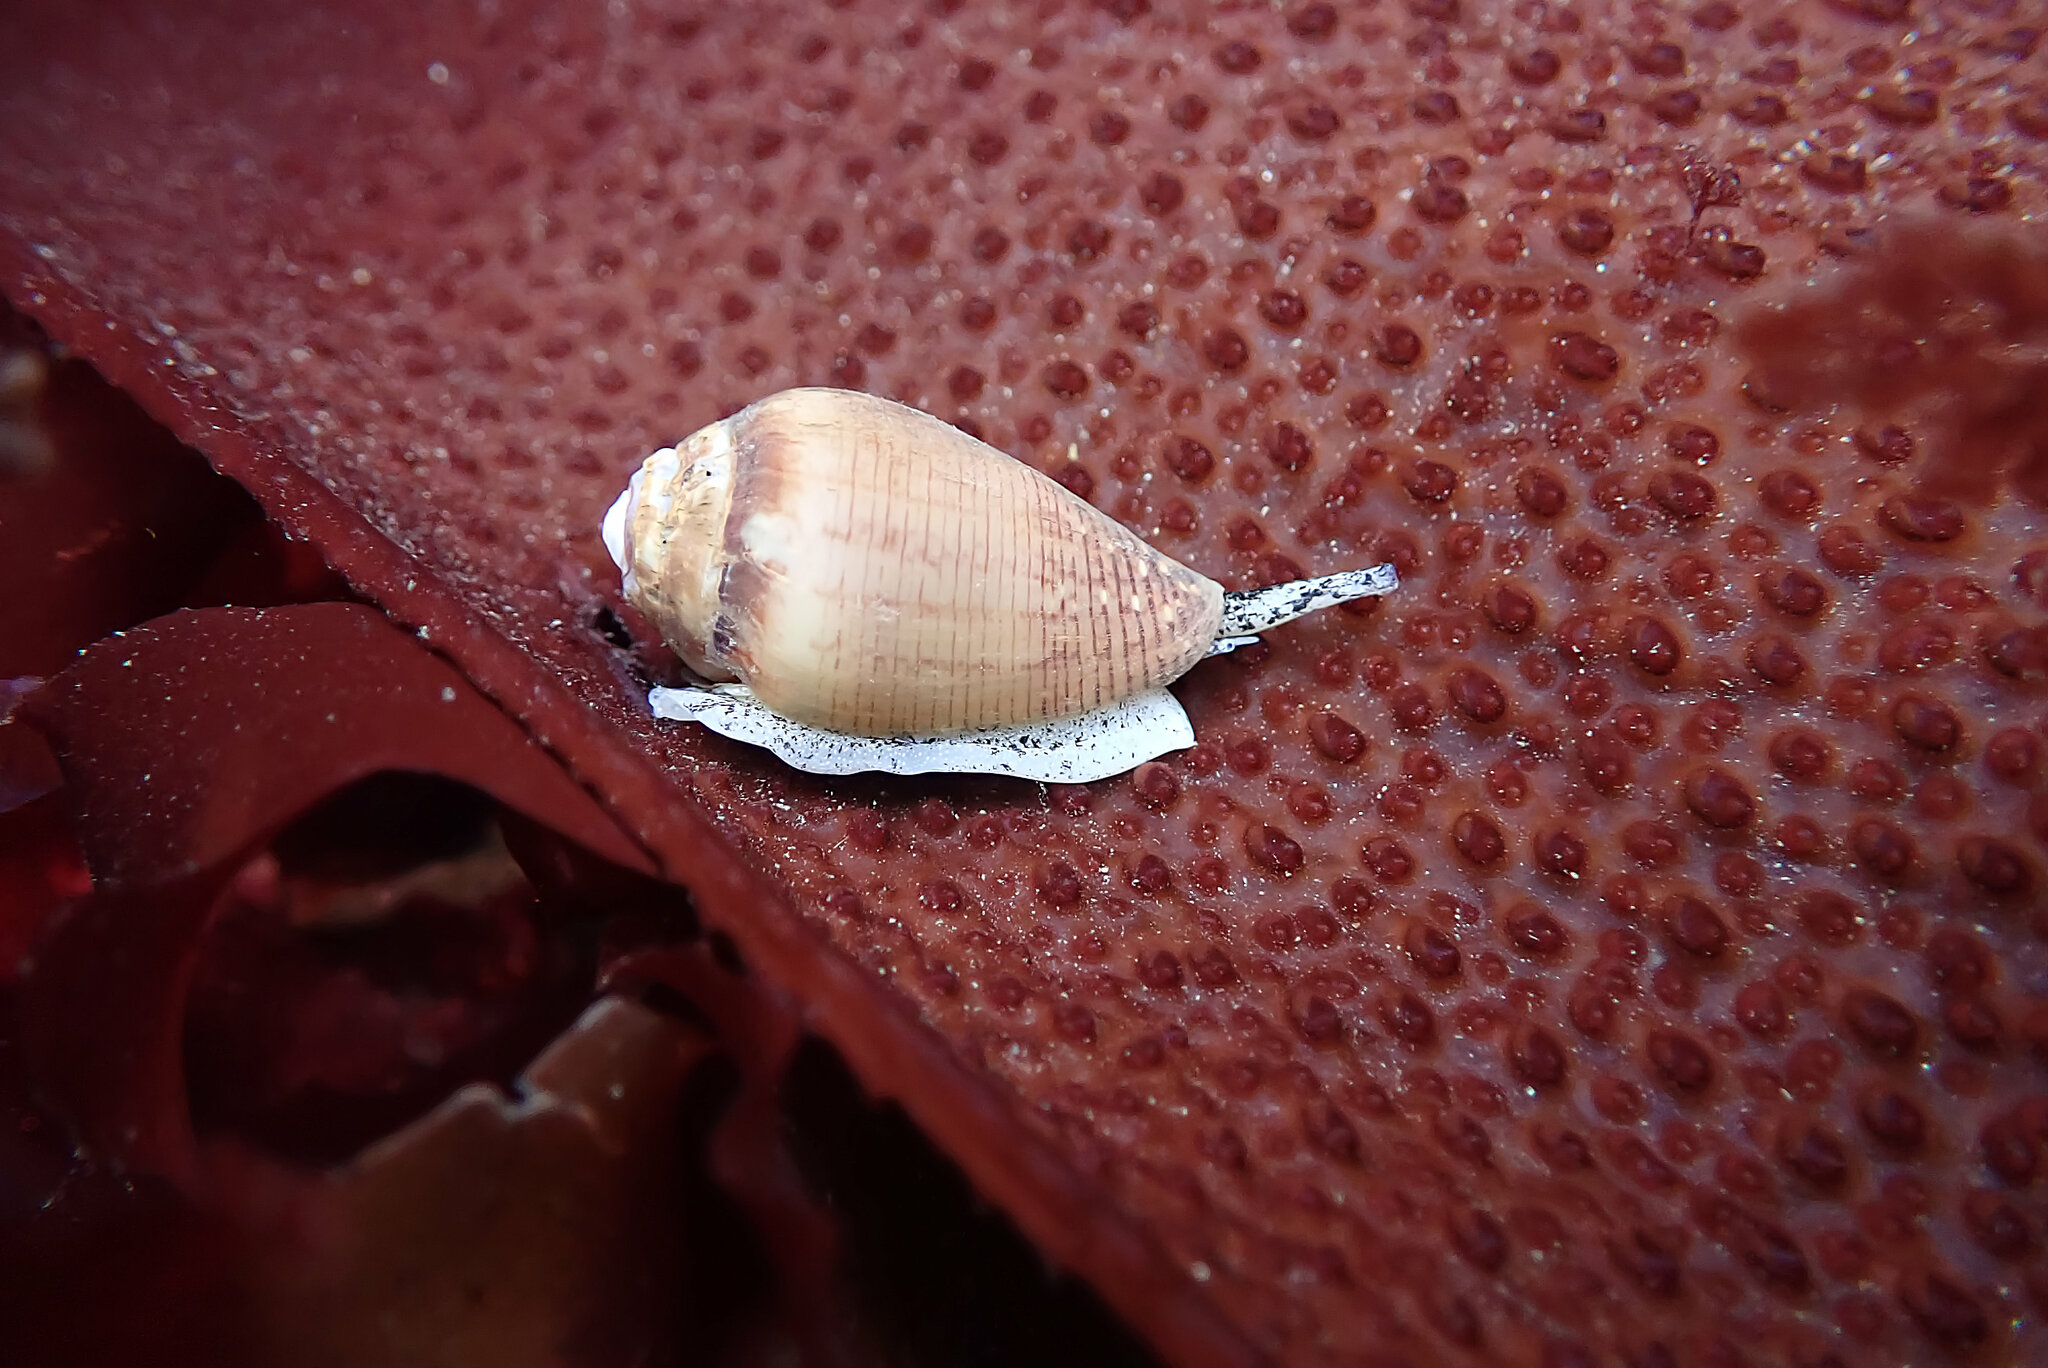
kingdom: Animalia
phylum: Mollusca
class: Gastropoda
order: Neogastropoda
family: Conidae
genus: Californiconus
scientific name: Californiconus californicus
